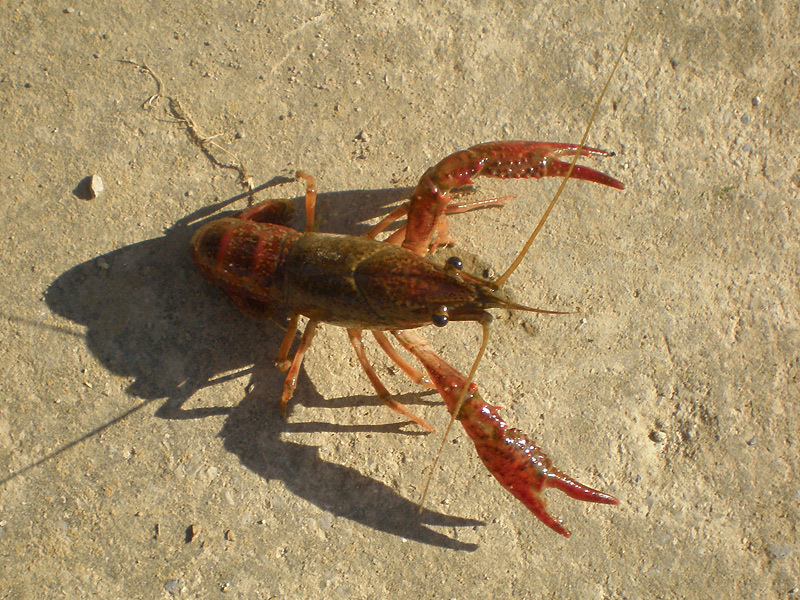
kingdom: Animalia
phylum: Arthropoda
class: Malacostraca
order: Decapoda
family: Cambaridae
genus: Procambarus
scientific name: Procambarus clarkii
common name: Red swamp crayfish
